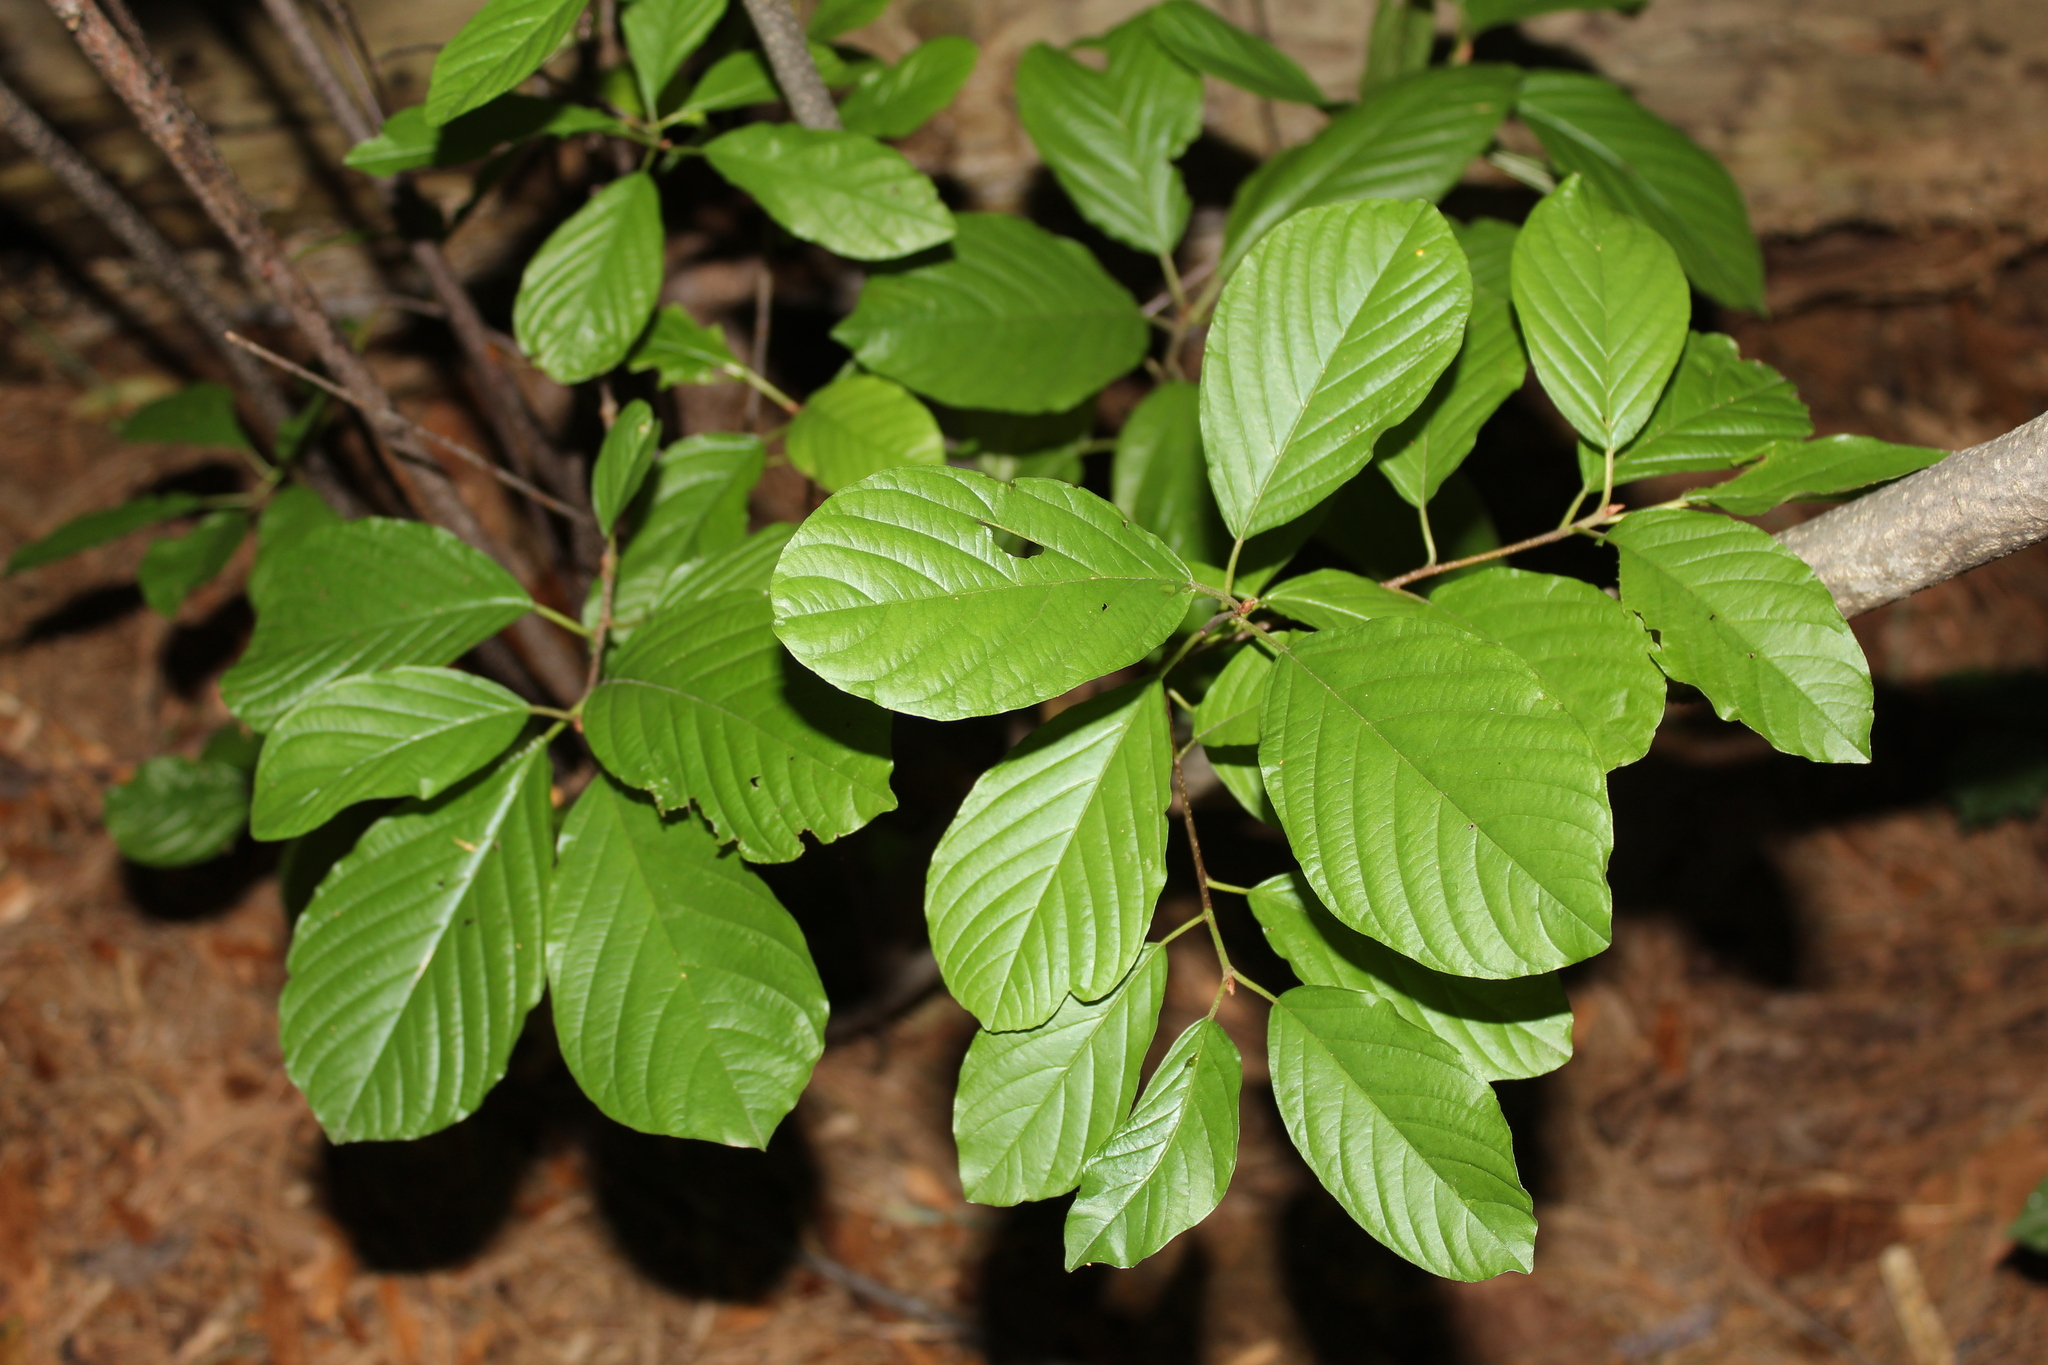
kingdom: Plantae
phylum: Tracheophyta
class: Magnoliopsida
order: Rosales
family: Rhamnaceae
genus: Frangula
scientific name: Frangula alnus
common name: Alder buckthorn
